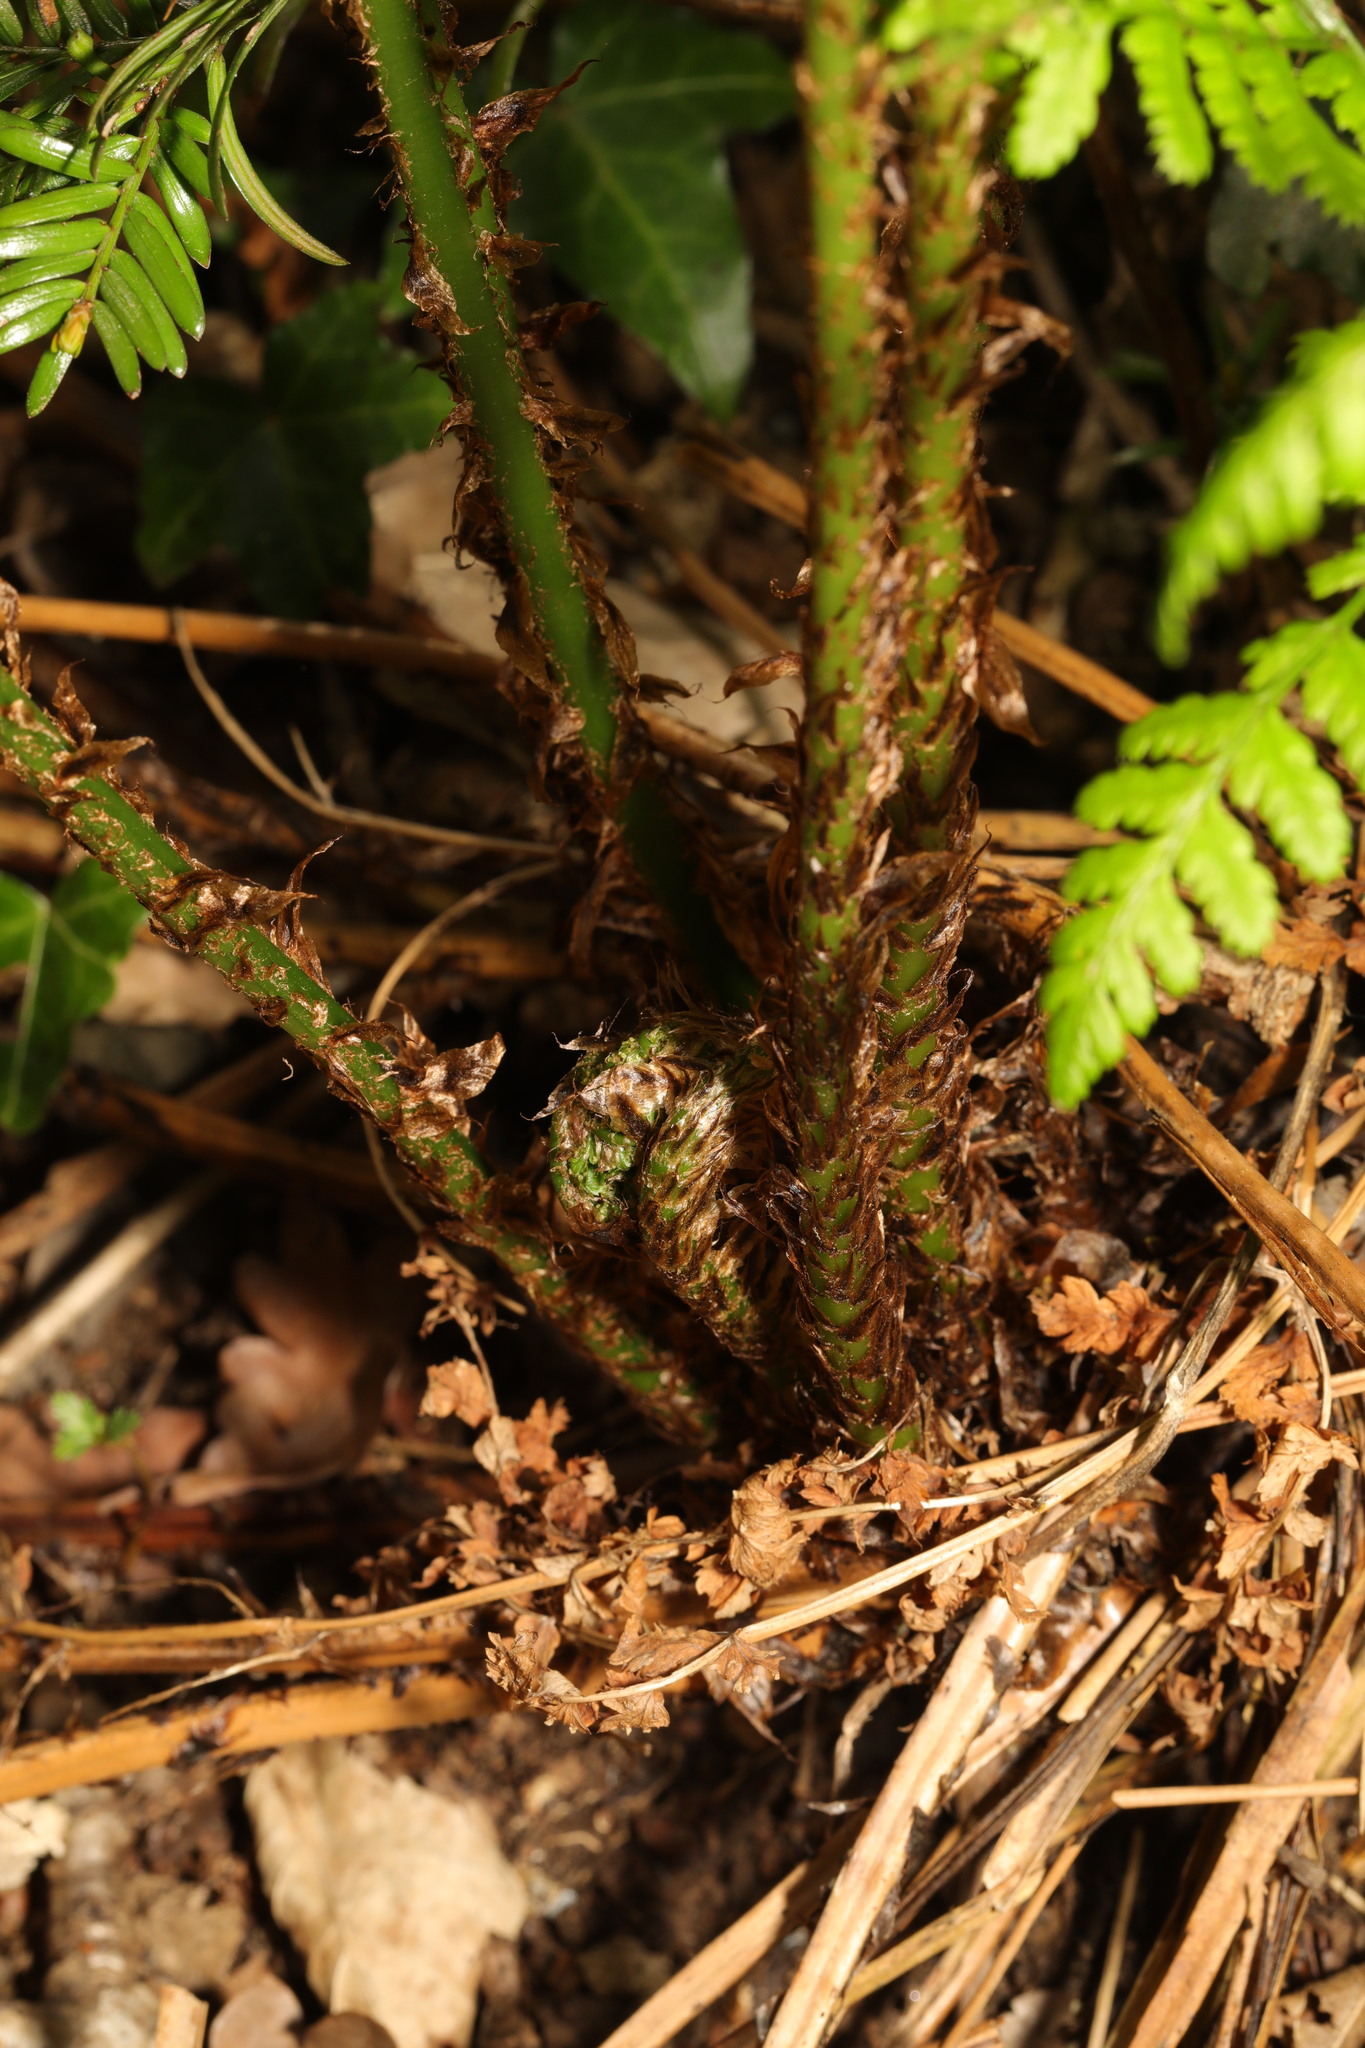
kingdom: Plantae
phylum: Tracheophyta
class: Polypodiopsida
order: Polypodiales
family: Dryopteridaceae
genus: Dryopteris
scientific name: Dryopteris dilatata
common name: Broad buckler-fern
